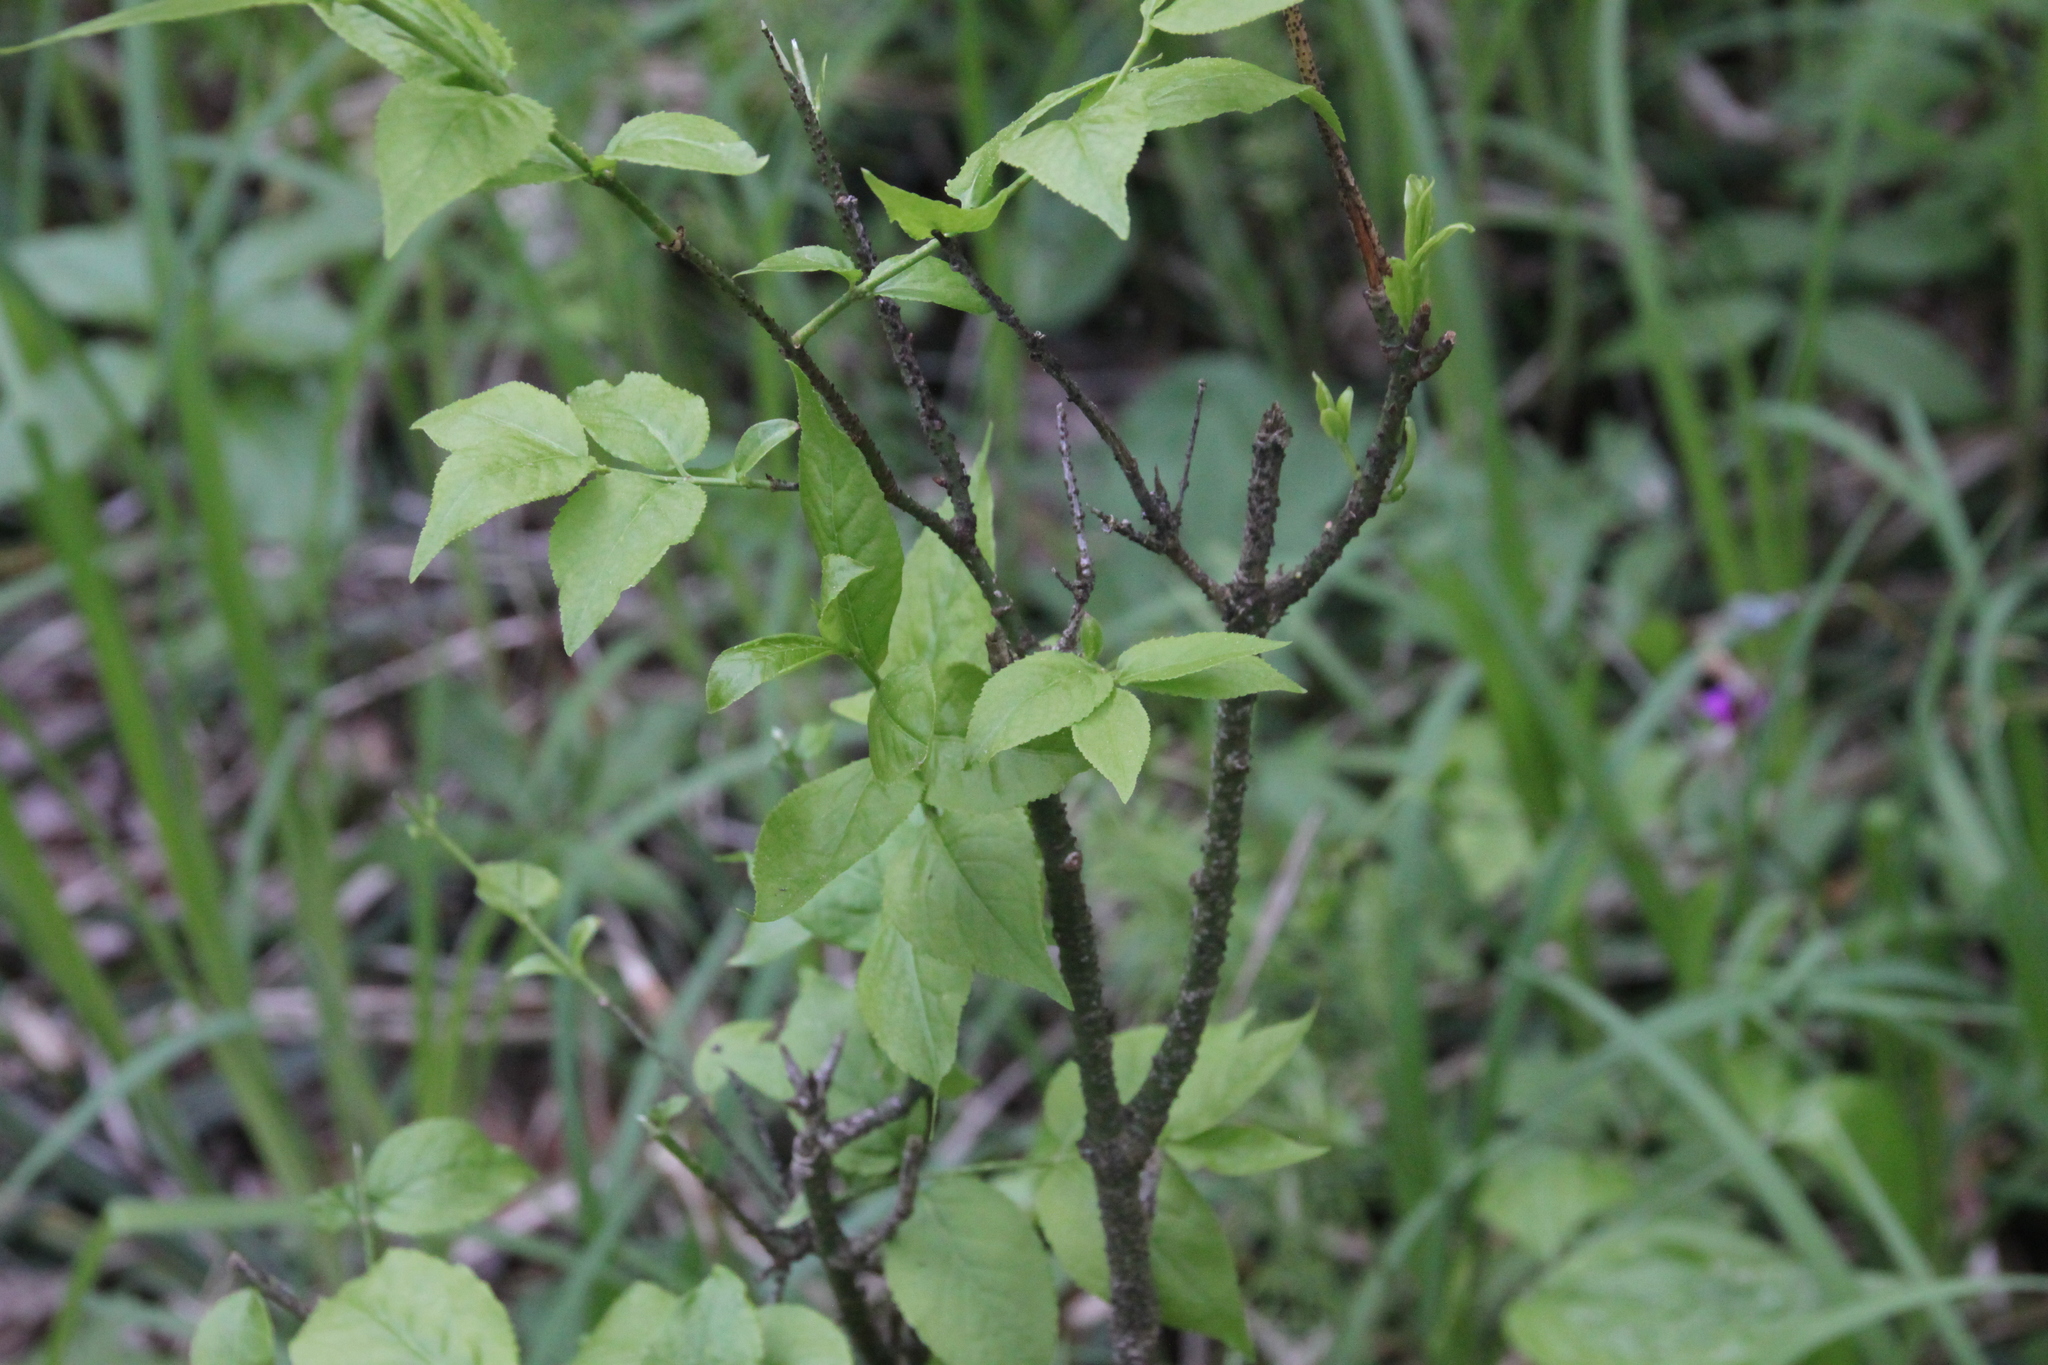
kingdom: Plantae
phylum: Tracheophyta
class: Magnoliopsida
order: Celastrales
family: Celastraceae
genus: Euonymus
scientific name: Euonymus verrucosus
